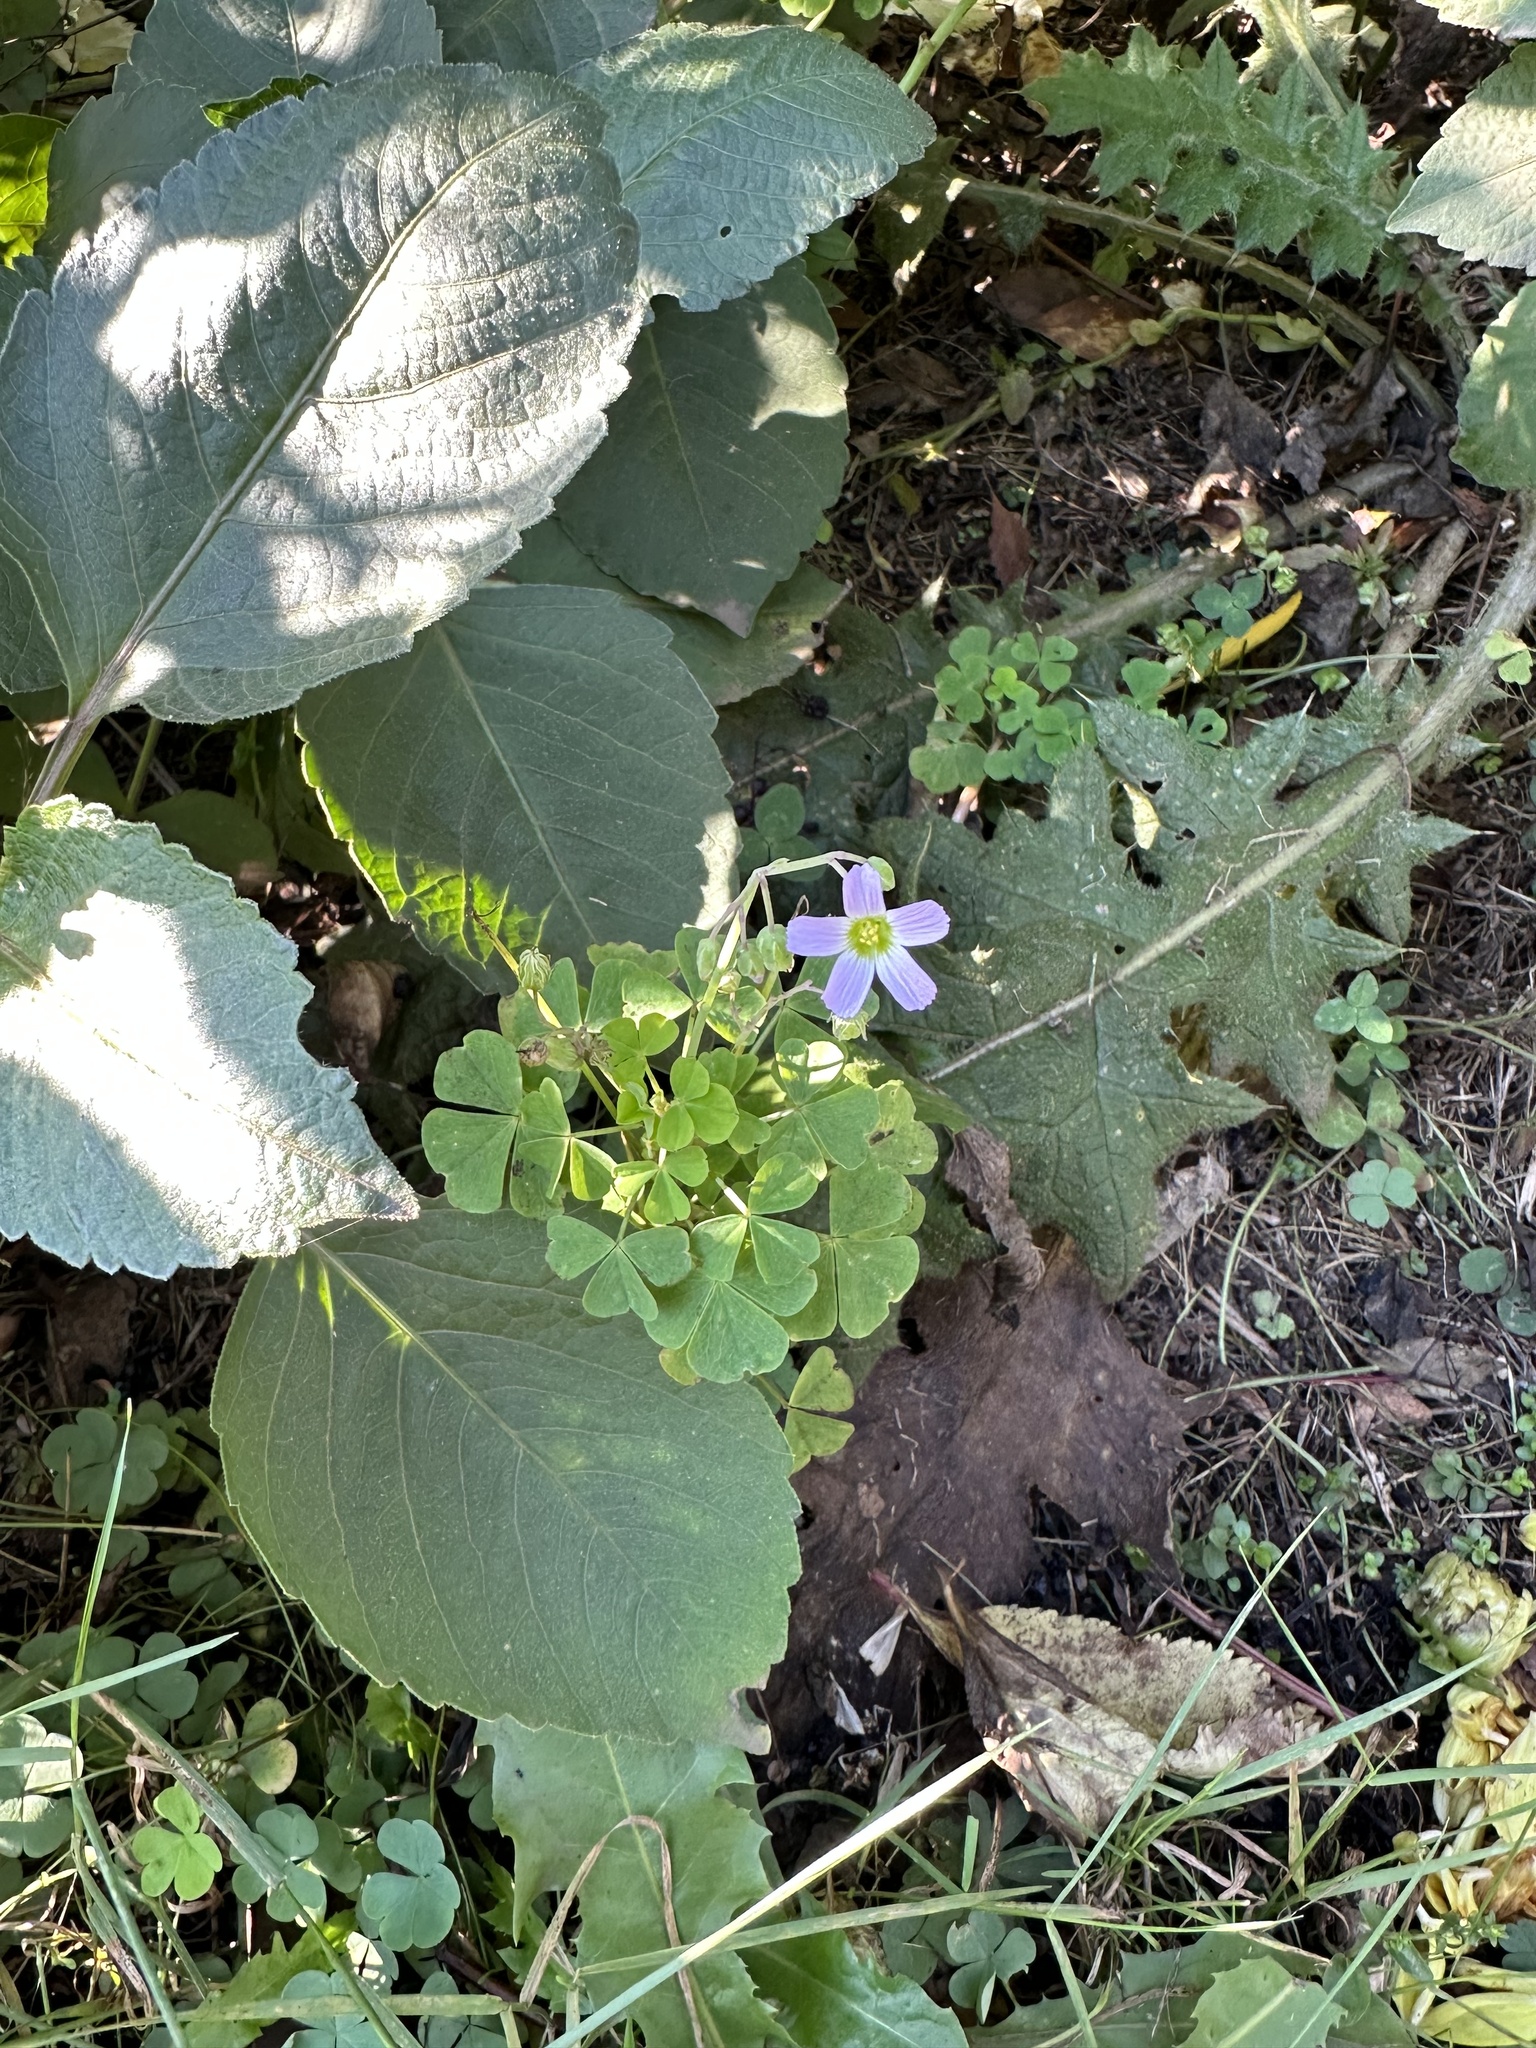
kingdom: Plantae
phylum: Tracheophyta
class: Magnoliopsida
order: Oxalidales
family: Oxalidaceae
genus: Oxalis
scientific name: Oxalis rosea
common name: Annual pink-sorrel
